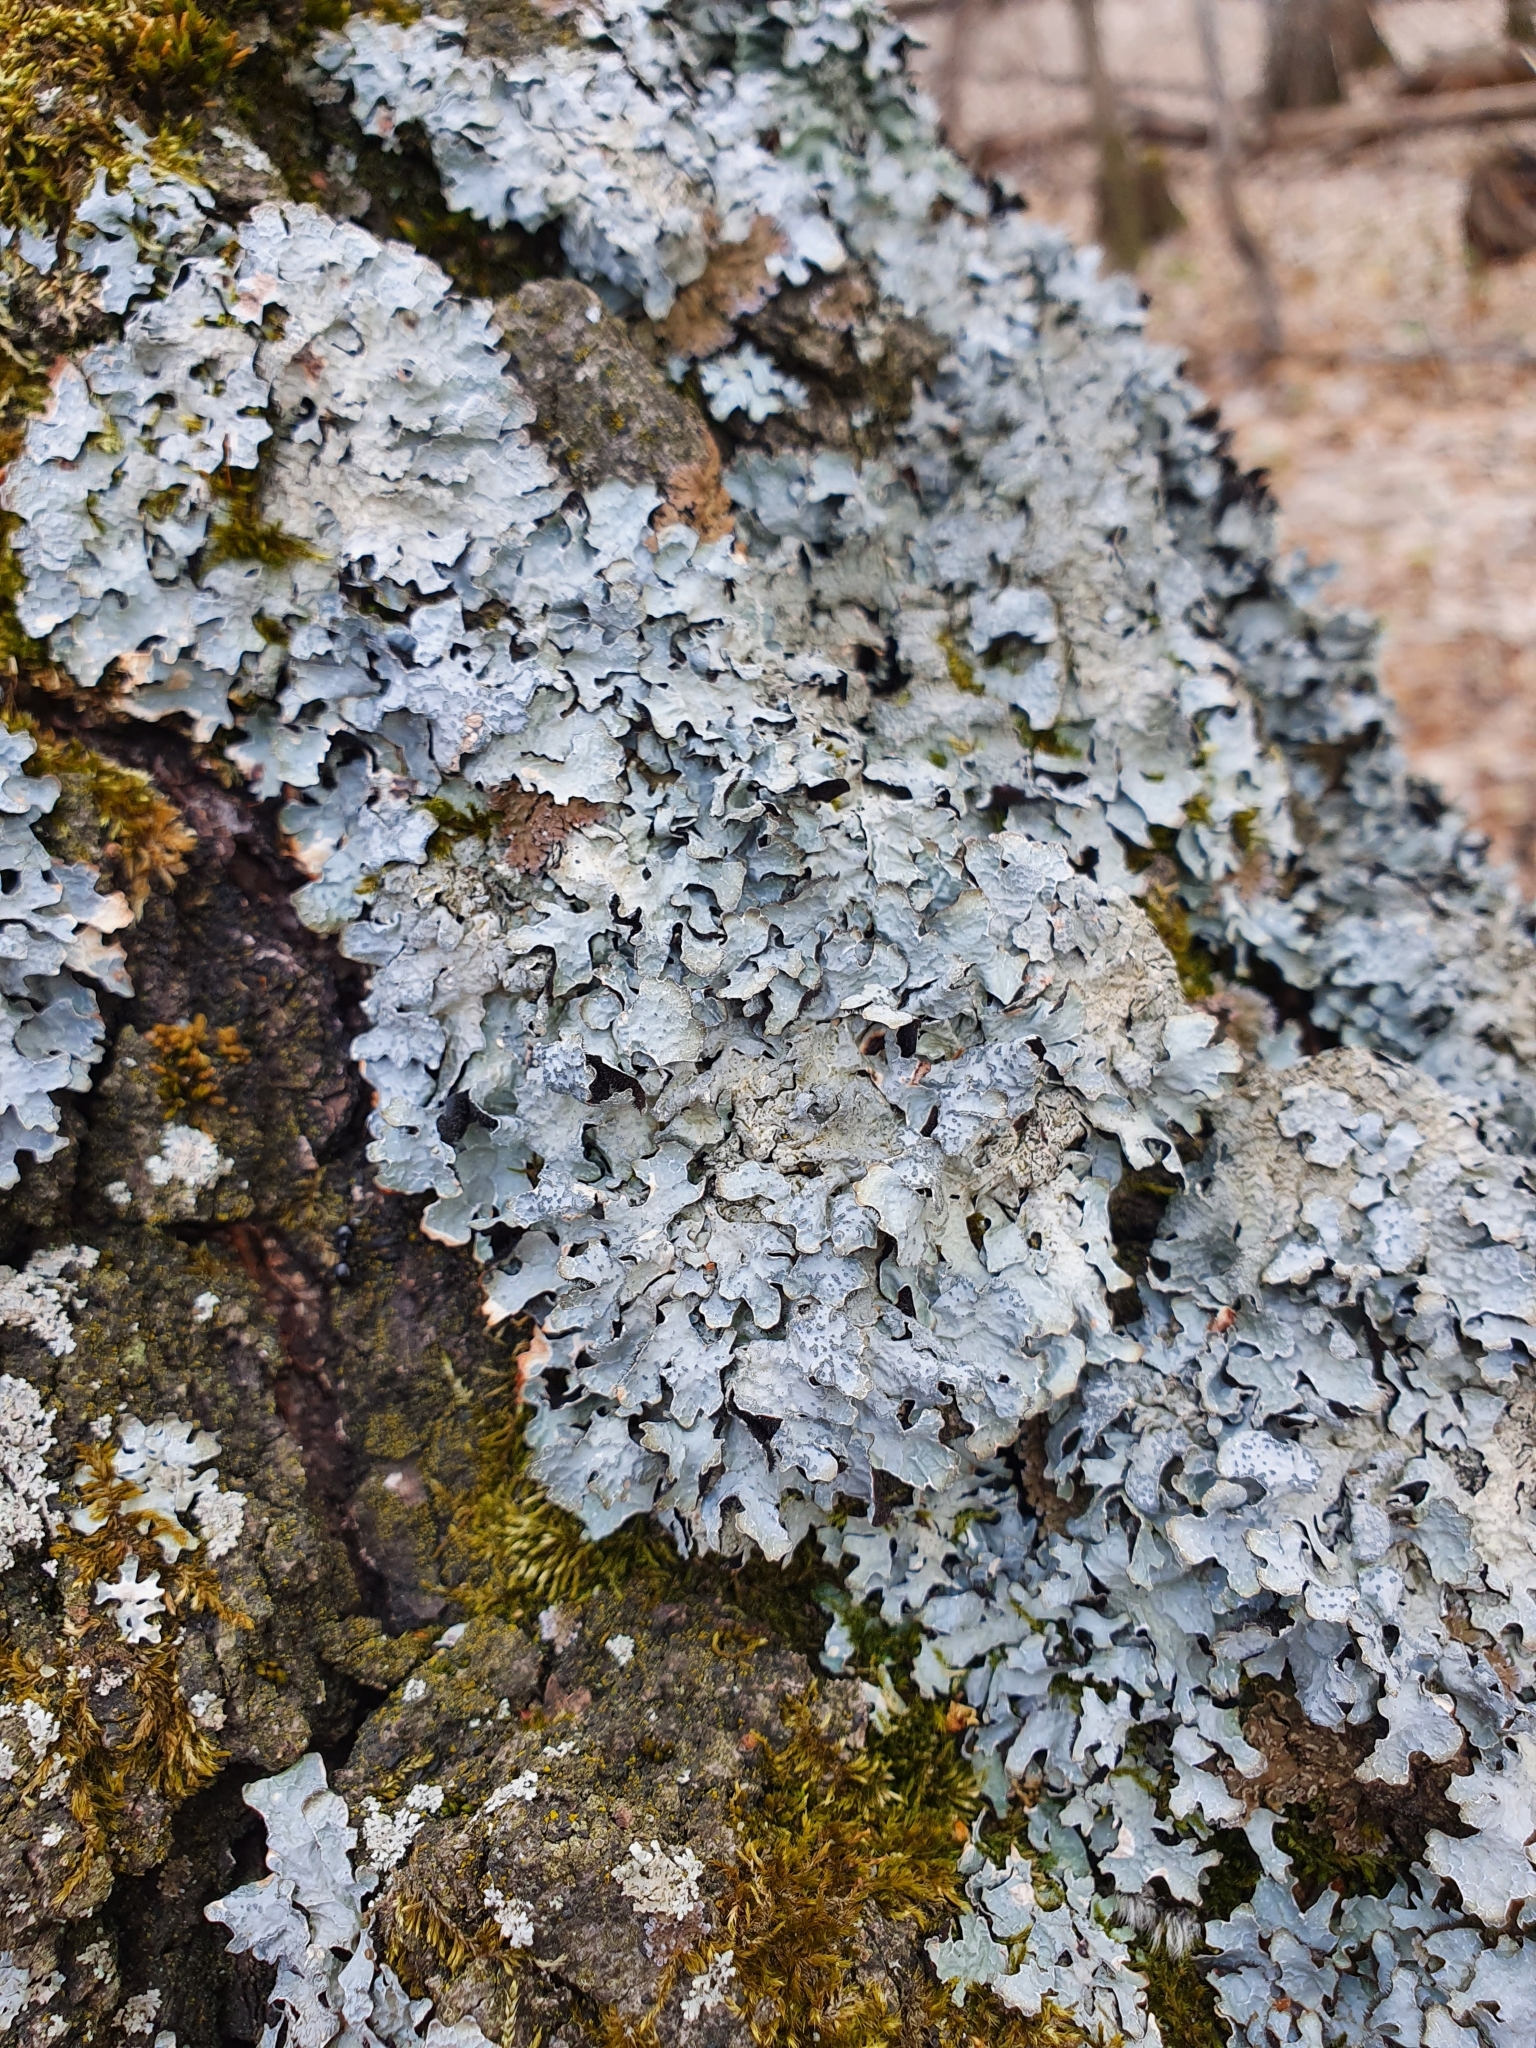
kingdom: Fungi
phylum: Ascomycota
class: Lecanoromycetes
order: Lecanorales
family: Parmeliaceae
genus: Parmelia
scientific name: Parmelia sulcata
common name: Netted shield lichen
